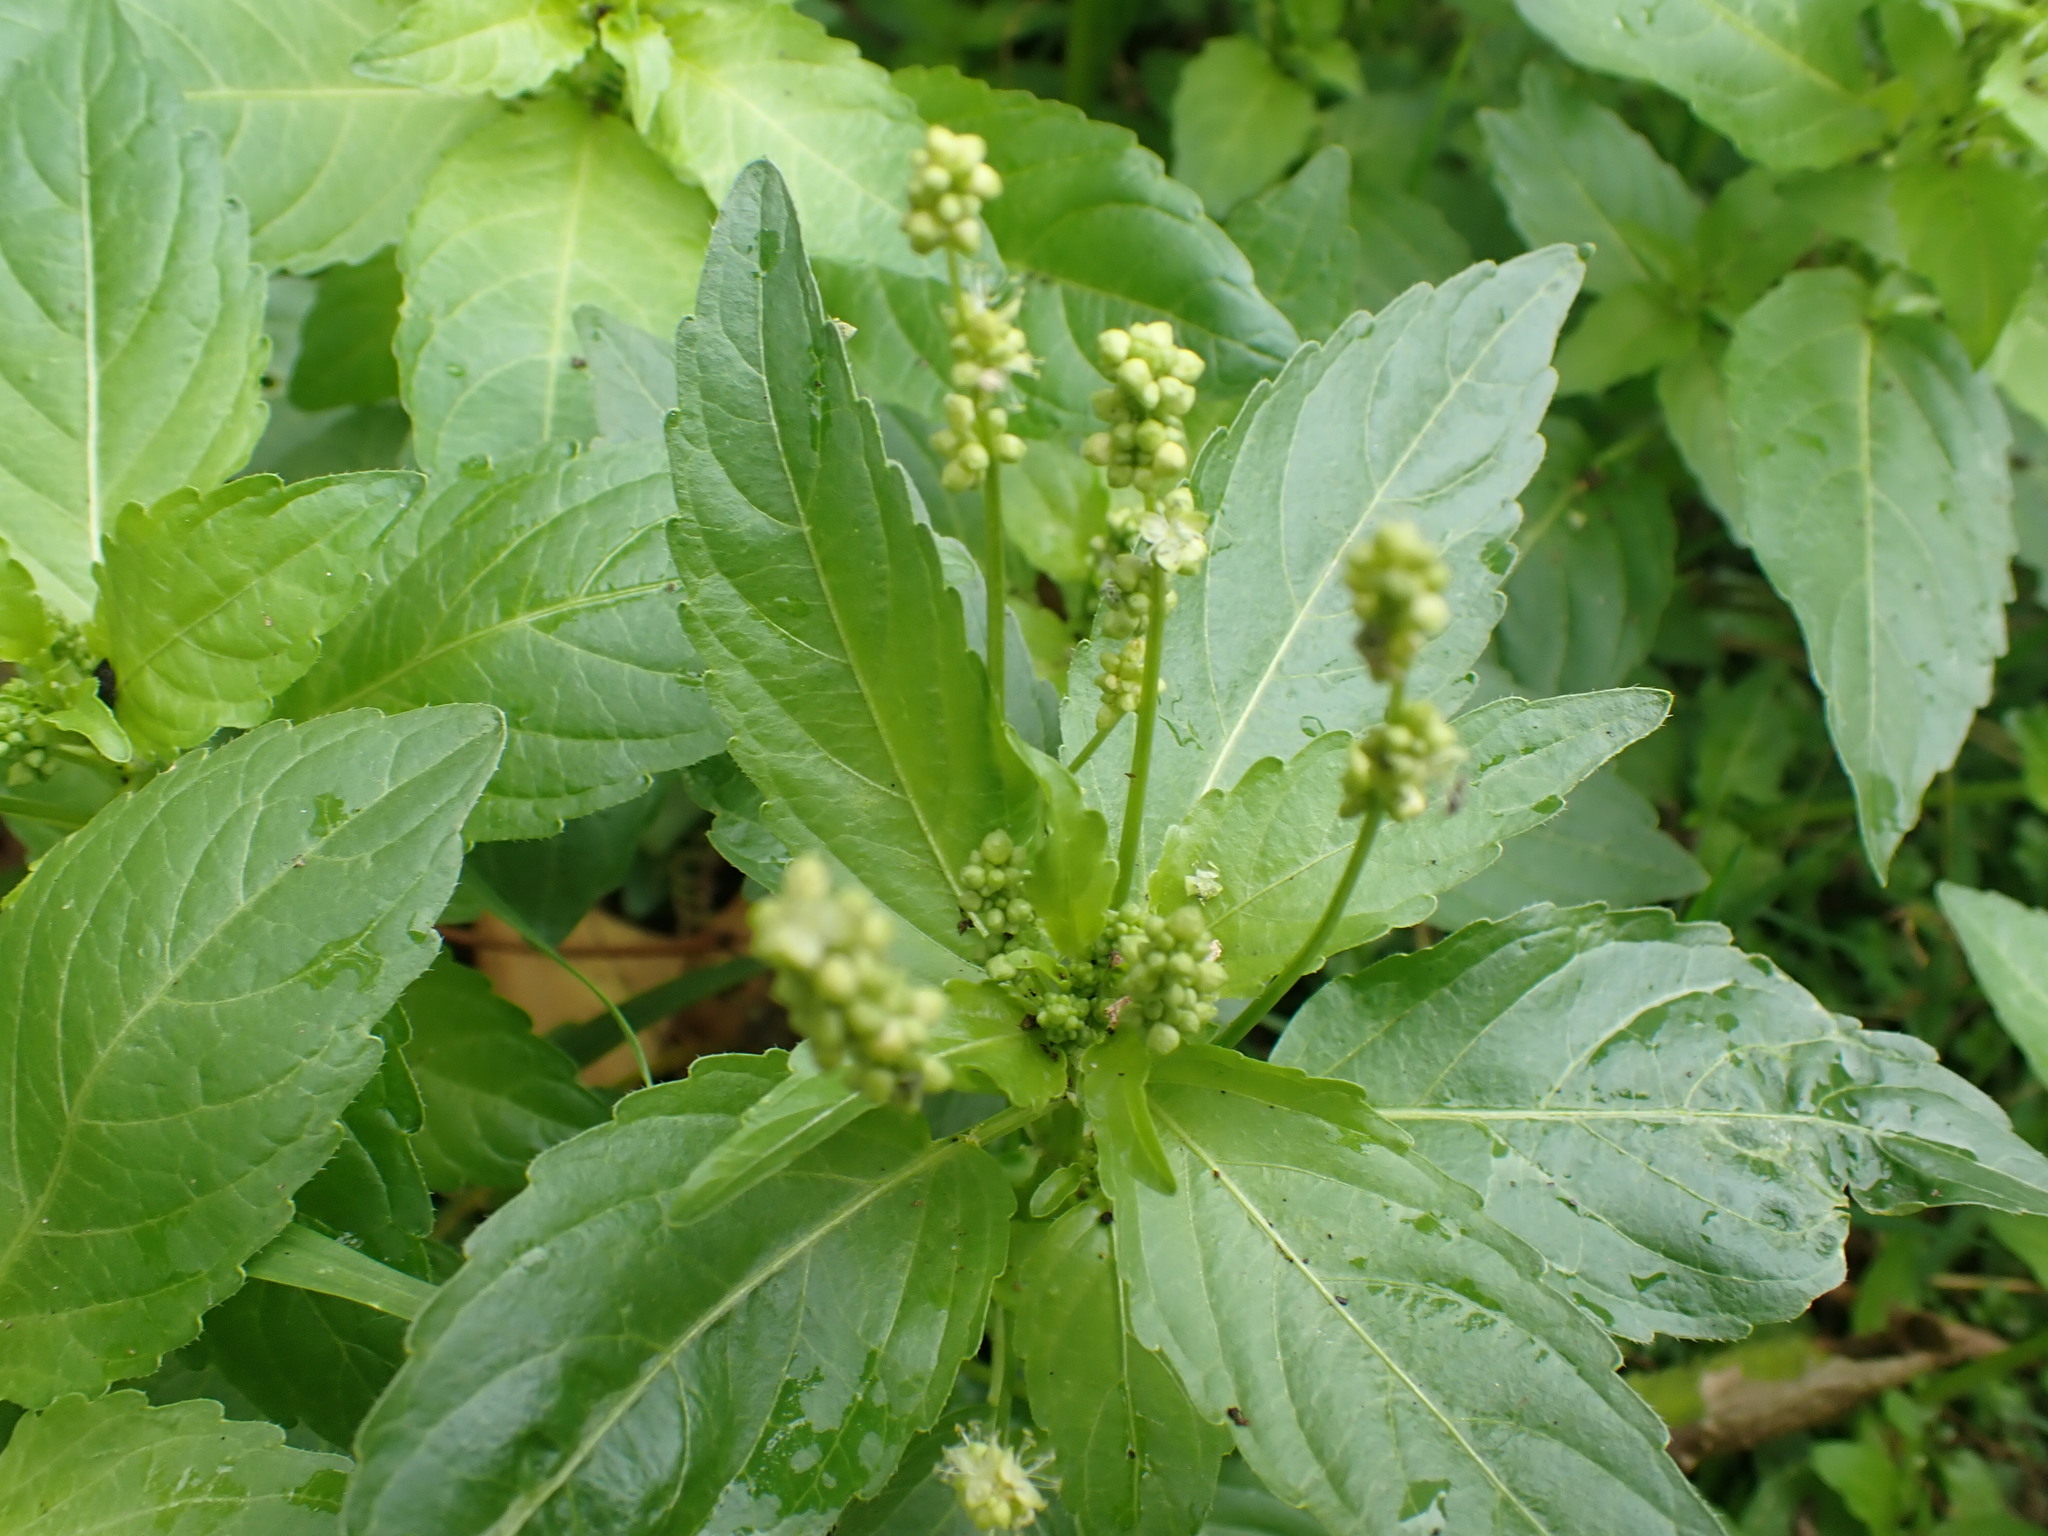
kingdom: Plantae
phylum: Tracheophyta
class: Magnoliopsida
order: Malpighiales
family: Euphorbiaceae
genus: Mercurialis
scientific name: Mercurialis annua
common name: Annual mercury
